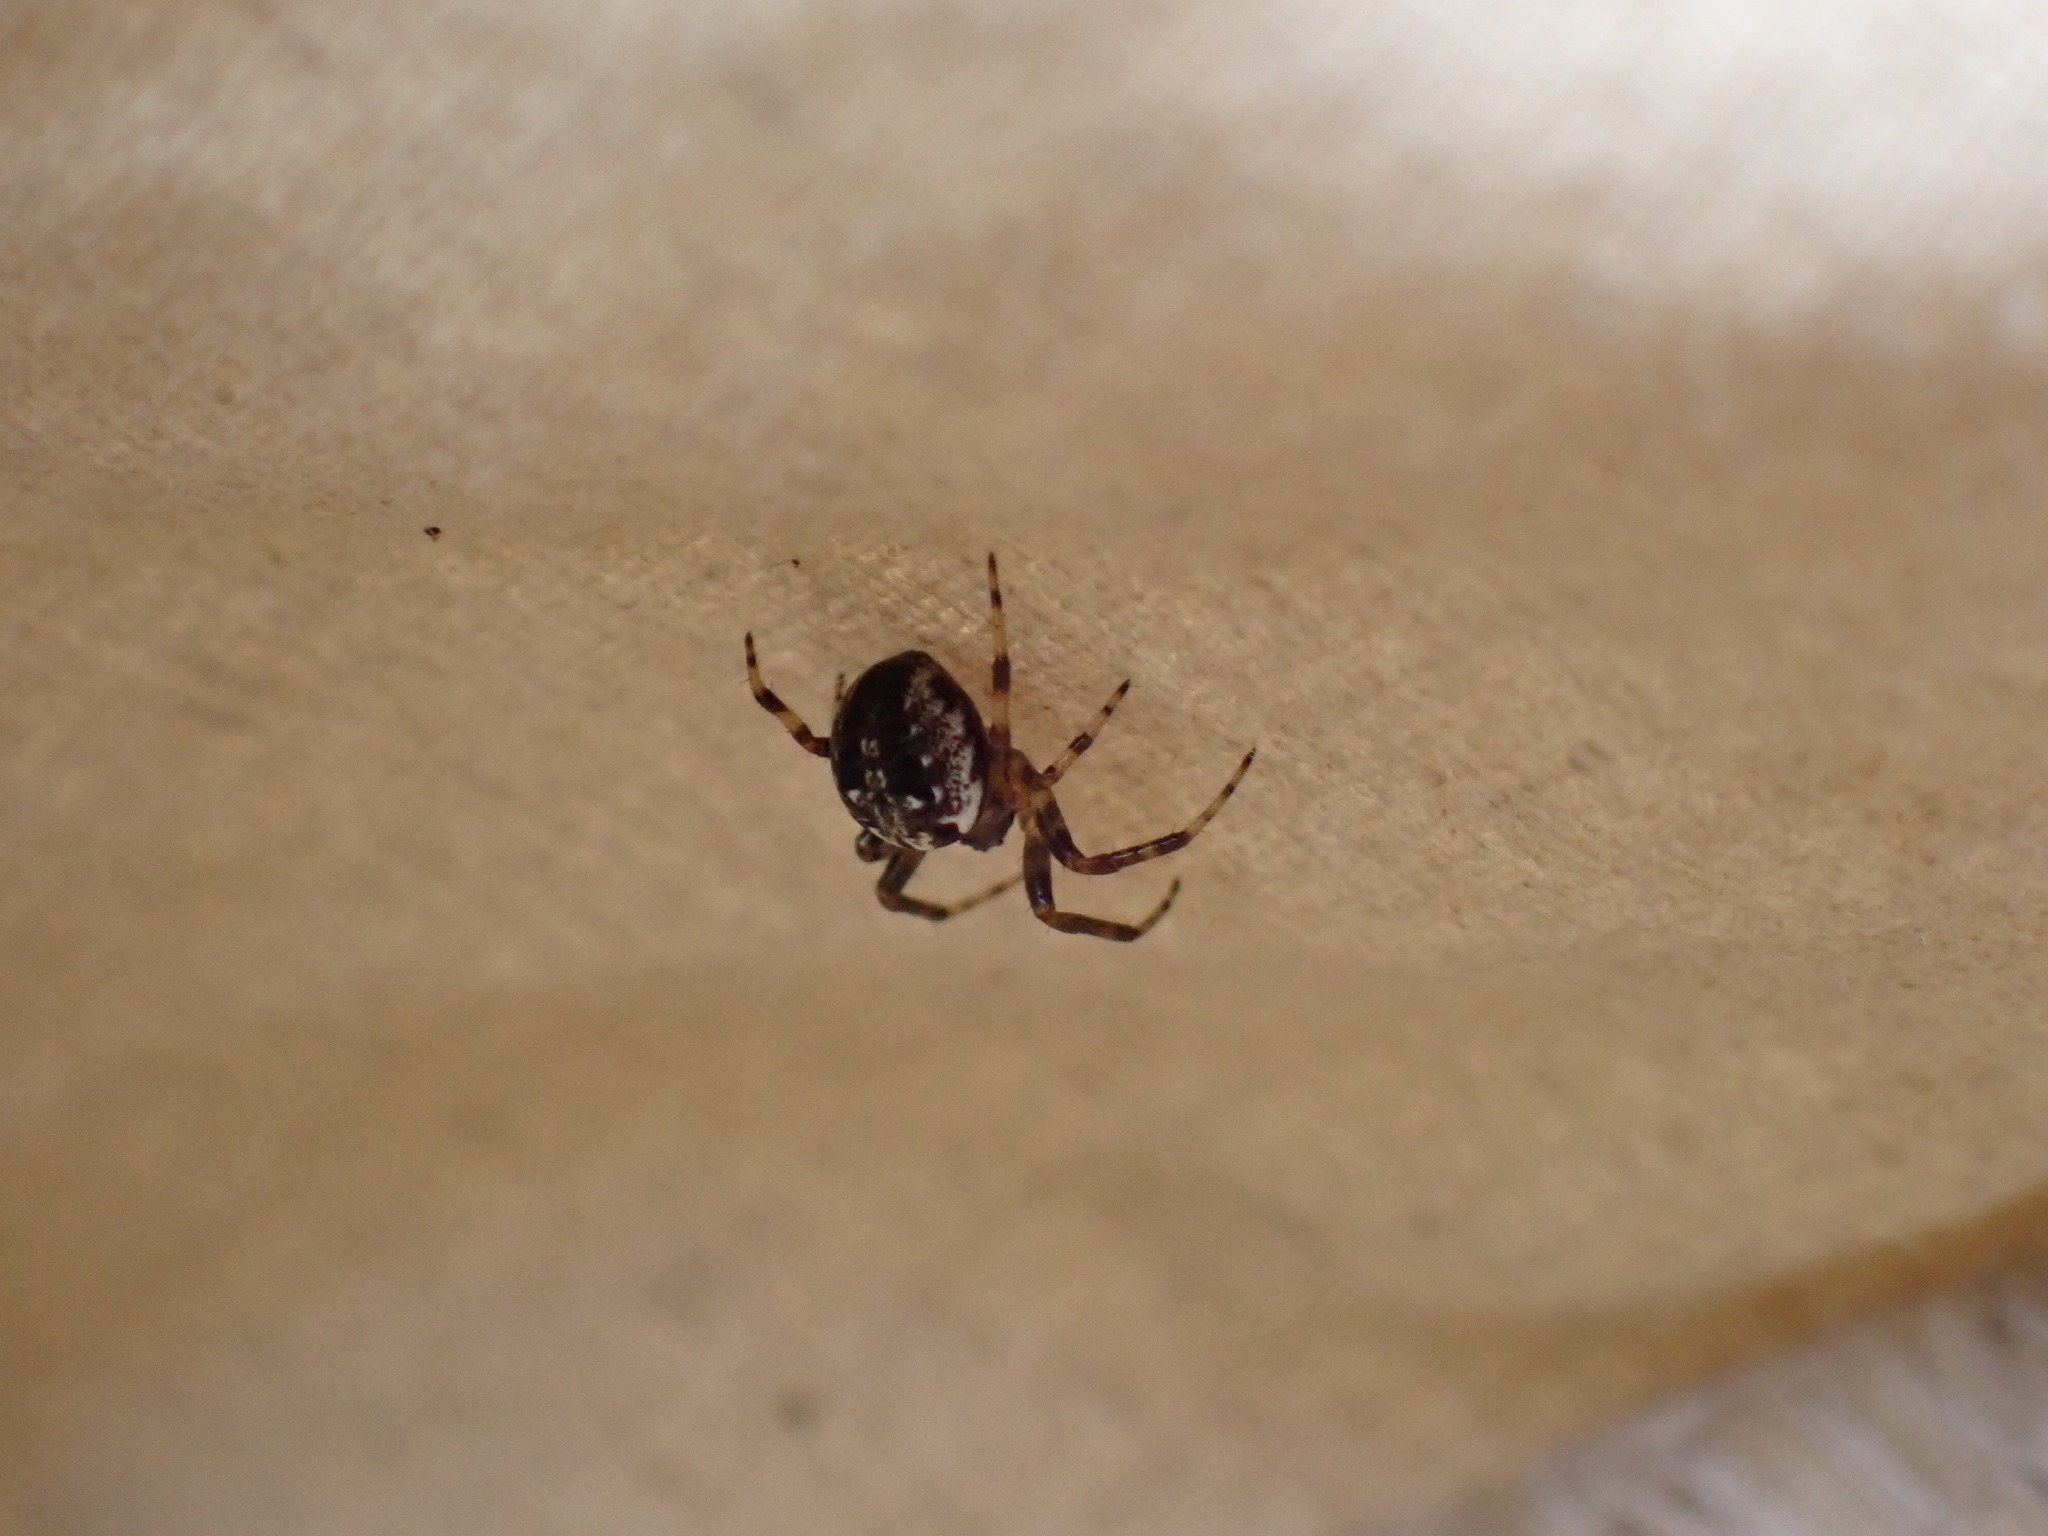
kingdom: Animalia
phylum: Arthropoda
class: Arachnida
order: Araneae
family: Araneidae
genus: Neoscona
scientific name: Neoscona arabesca
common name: Orb weavers
